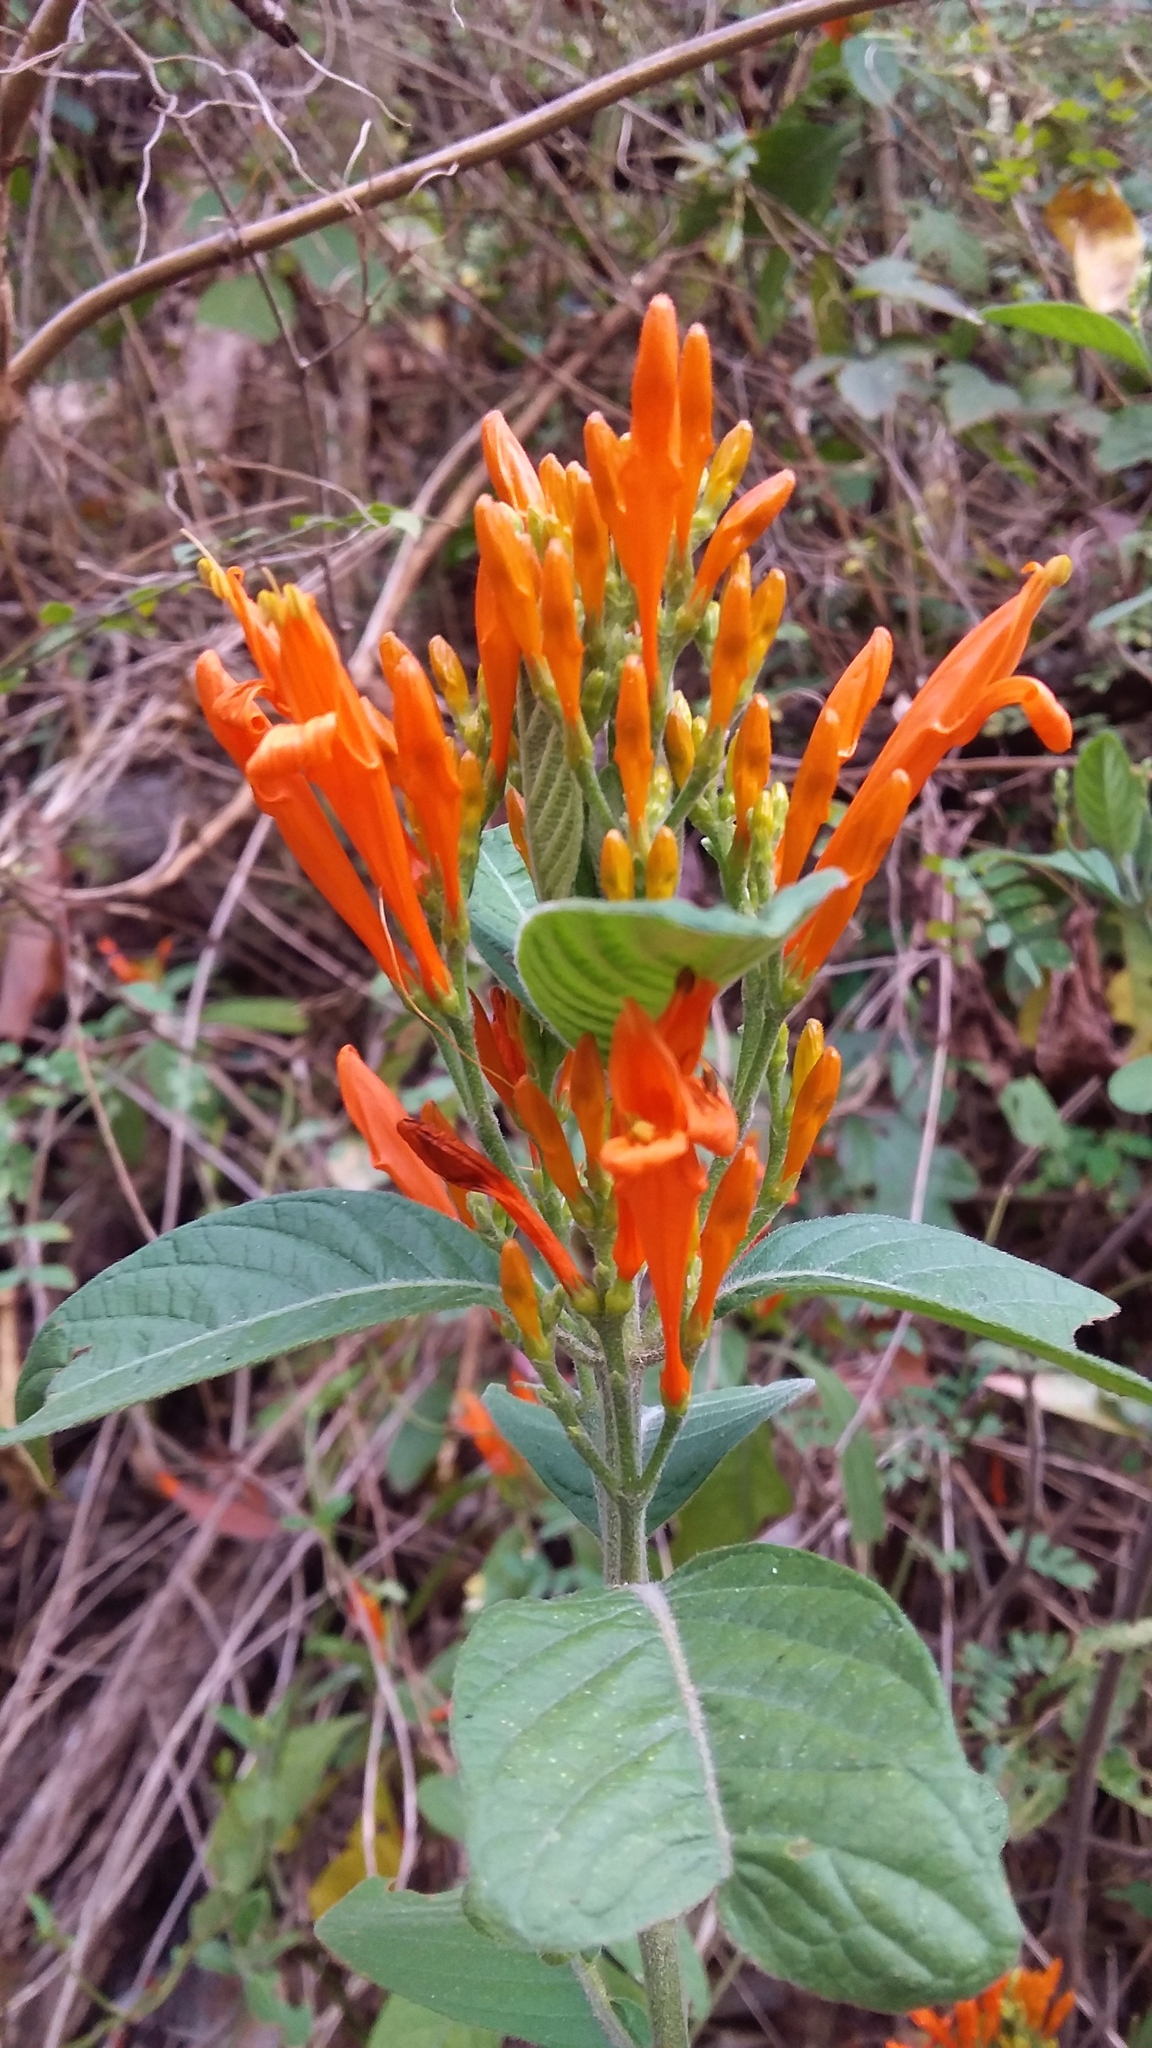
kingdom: Plantae
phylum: Tracheophyta
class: Magnoliopsida
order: Lamiales
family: Acanthaceae
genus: Justicia
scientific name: Justicia spicigera
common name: Mohintli
